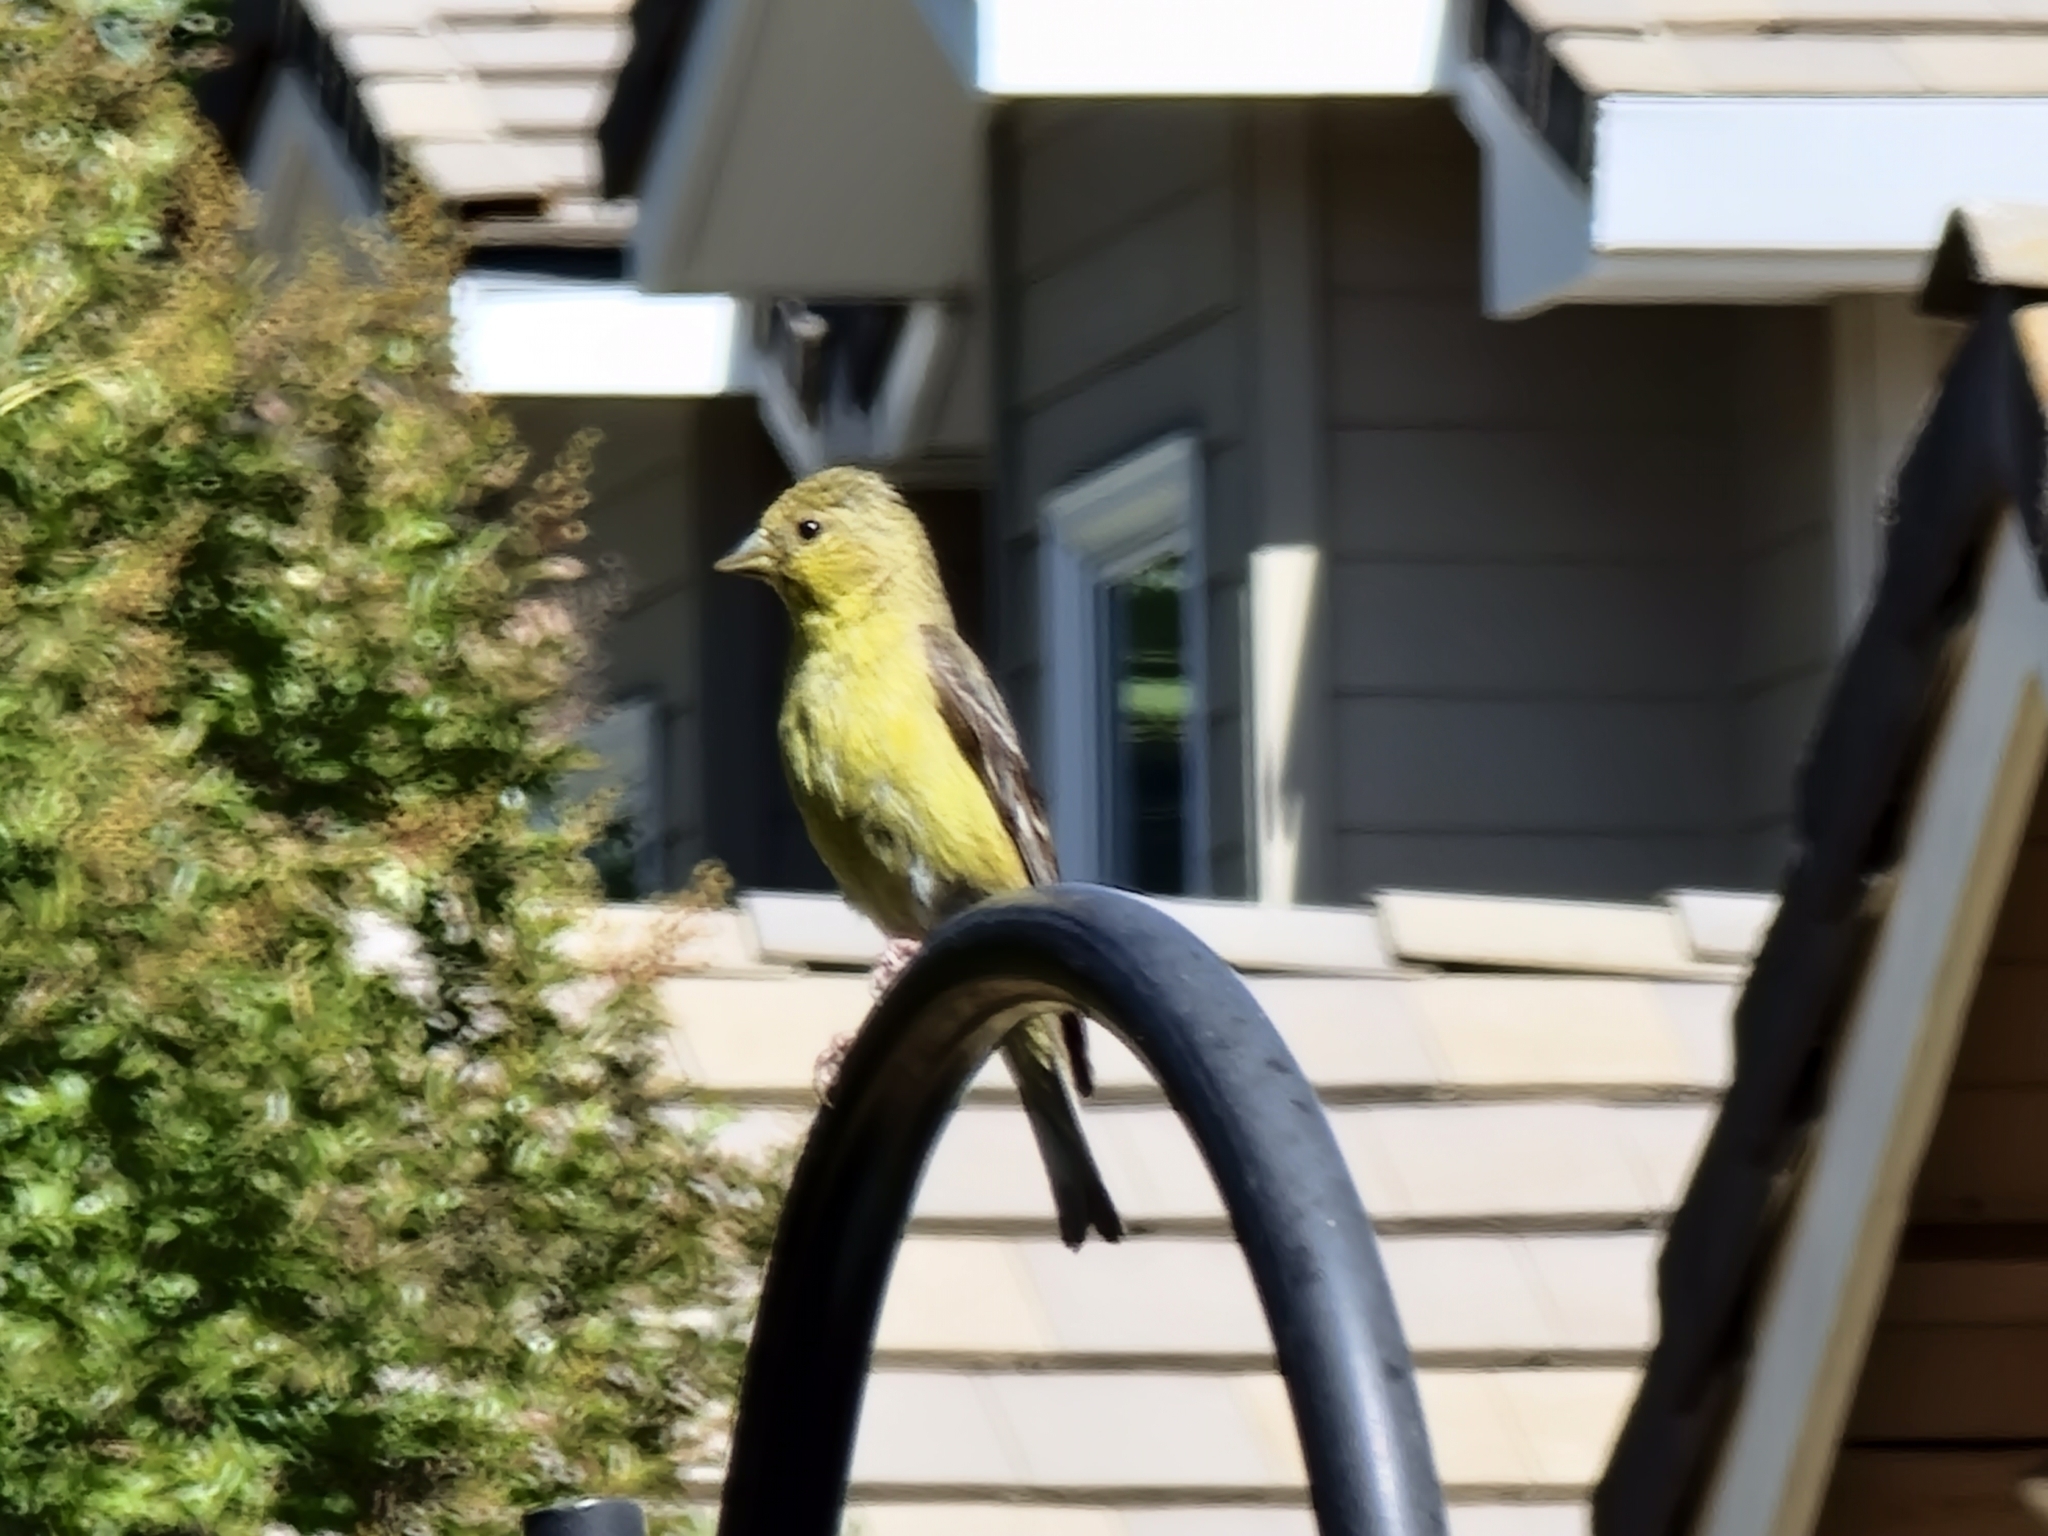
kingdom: Animalia
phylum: Chordata
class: Aves
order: Passeriformes
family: Fringillidae
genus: Spinus
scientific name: Spinus psaltria
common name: Lesser goldfinch
